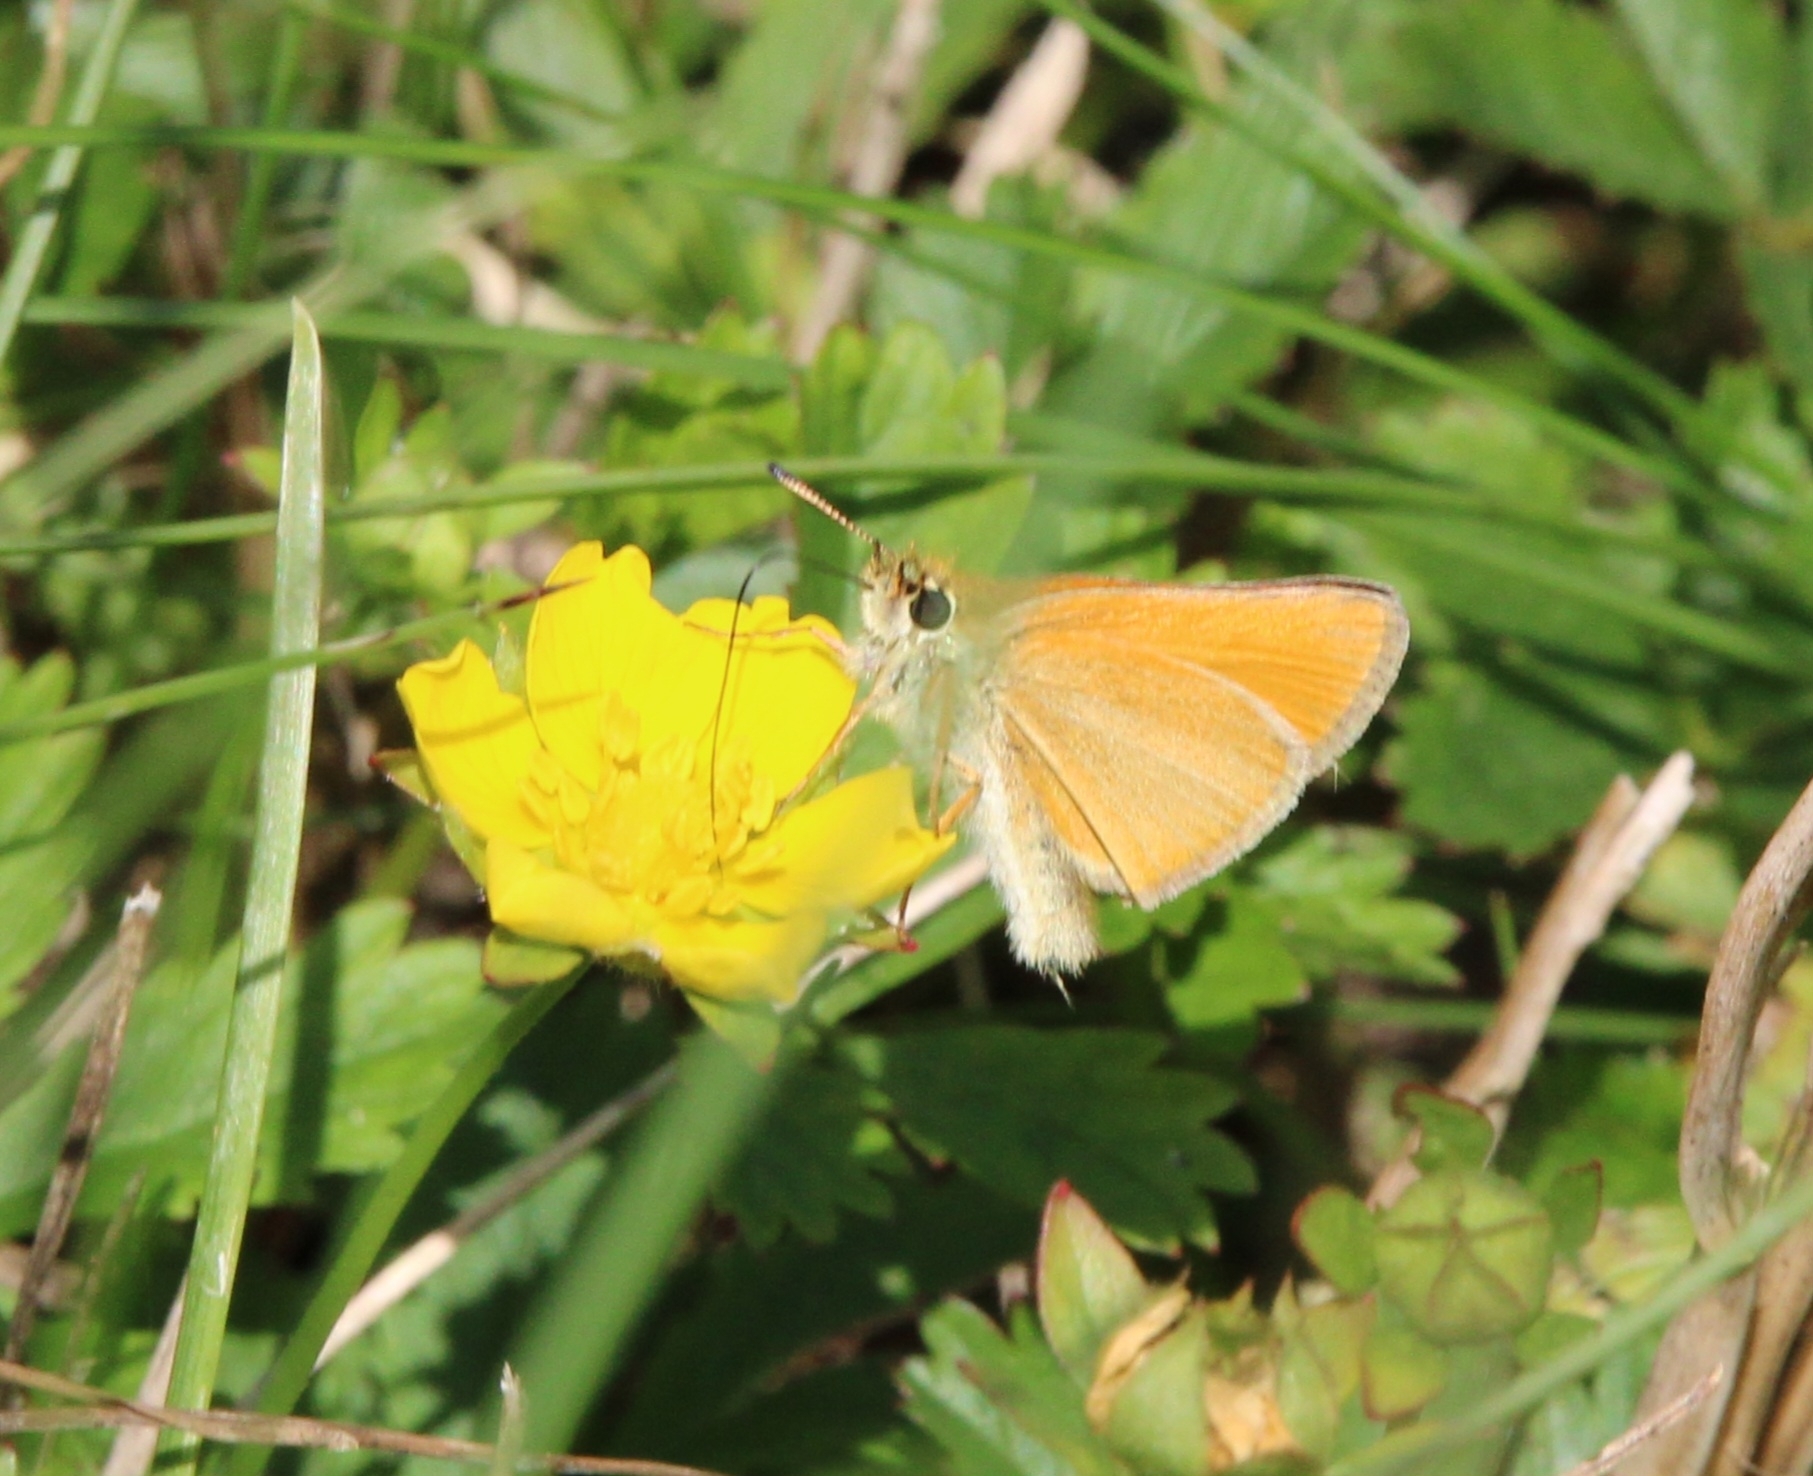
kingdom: Animalia
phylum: Arthropoda
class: Insecta
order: Lepidoptera
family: Hesperiidae
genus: Thymelicus
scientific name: Thymelicus lineola
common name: Essex skipper
